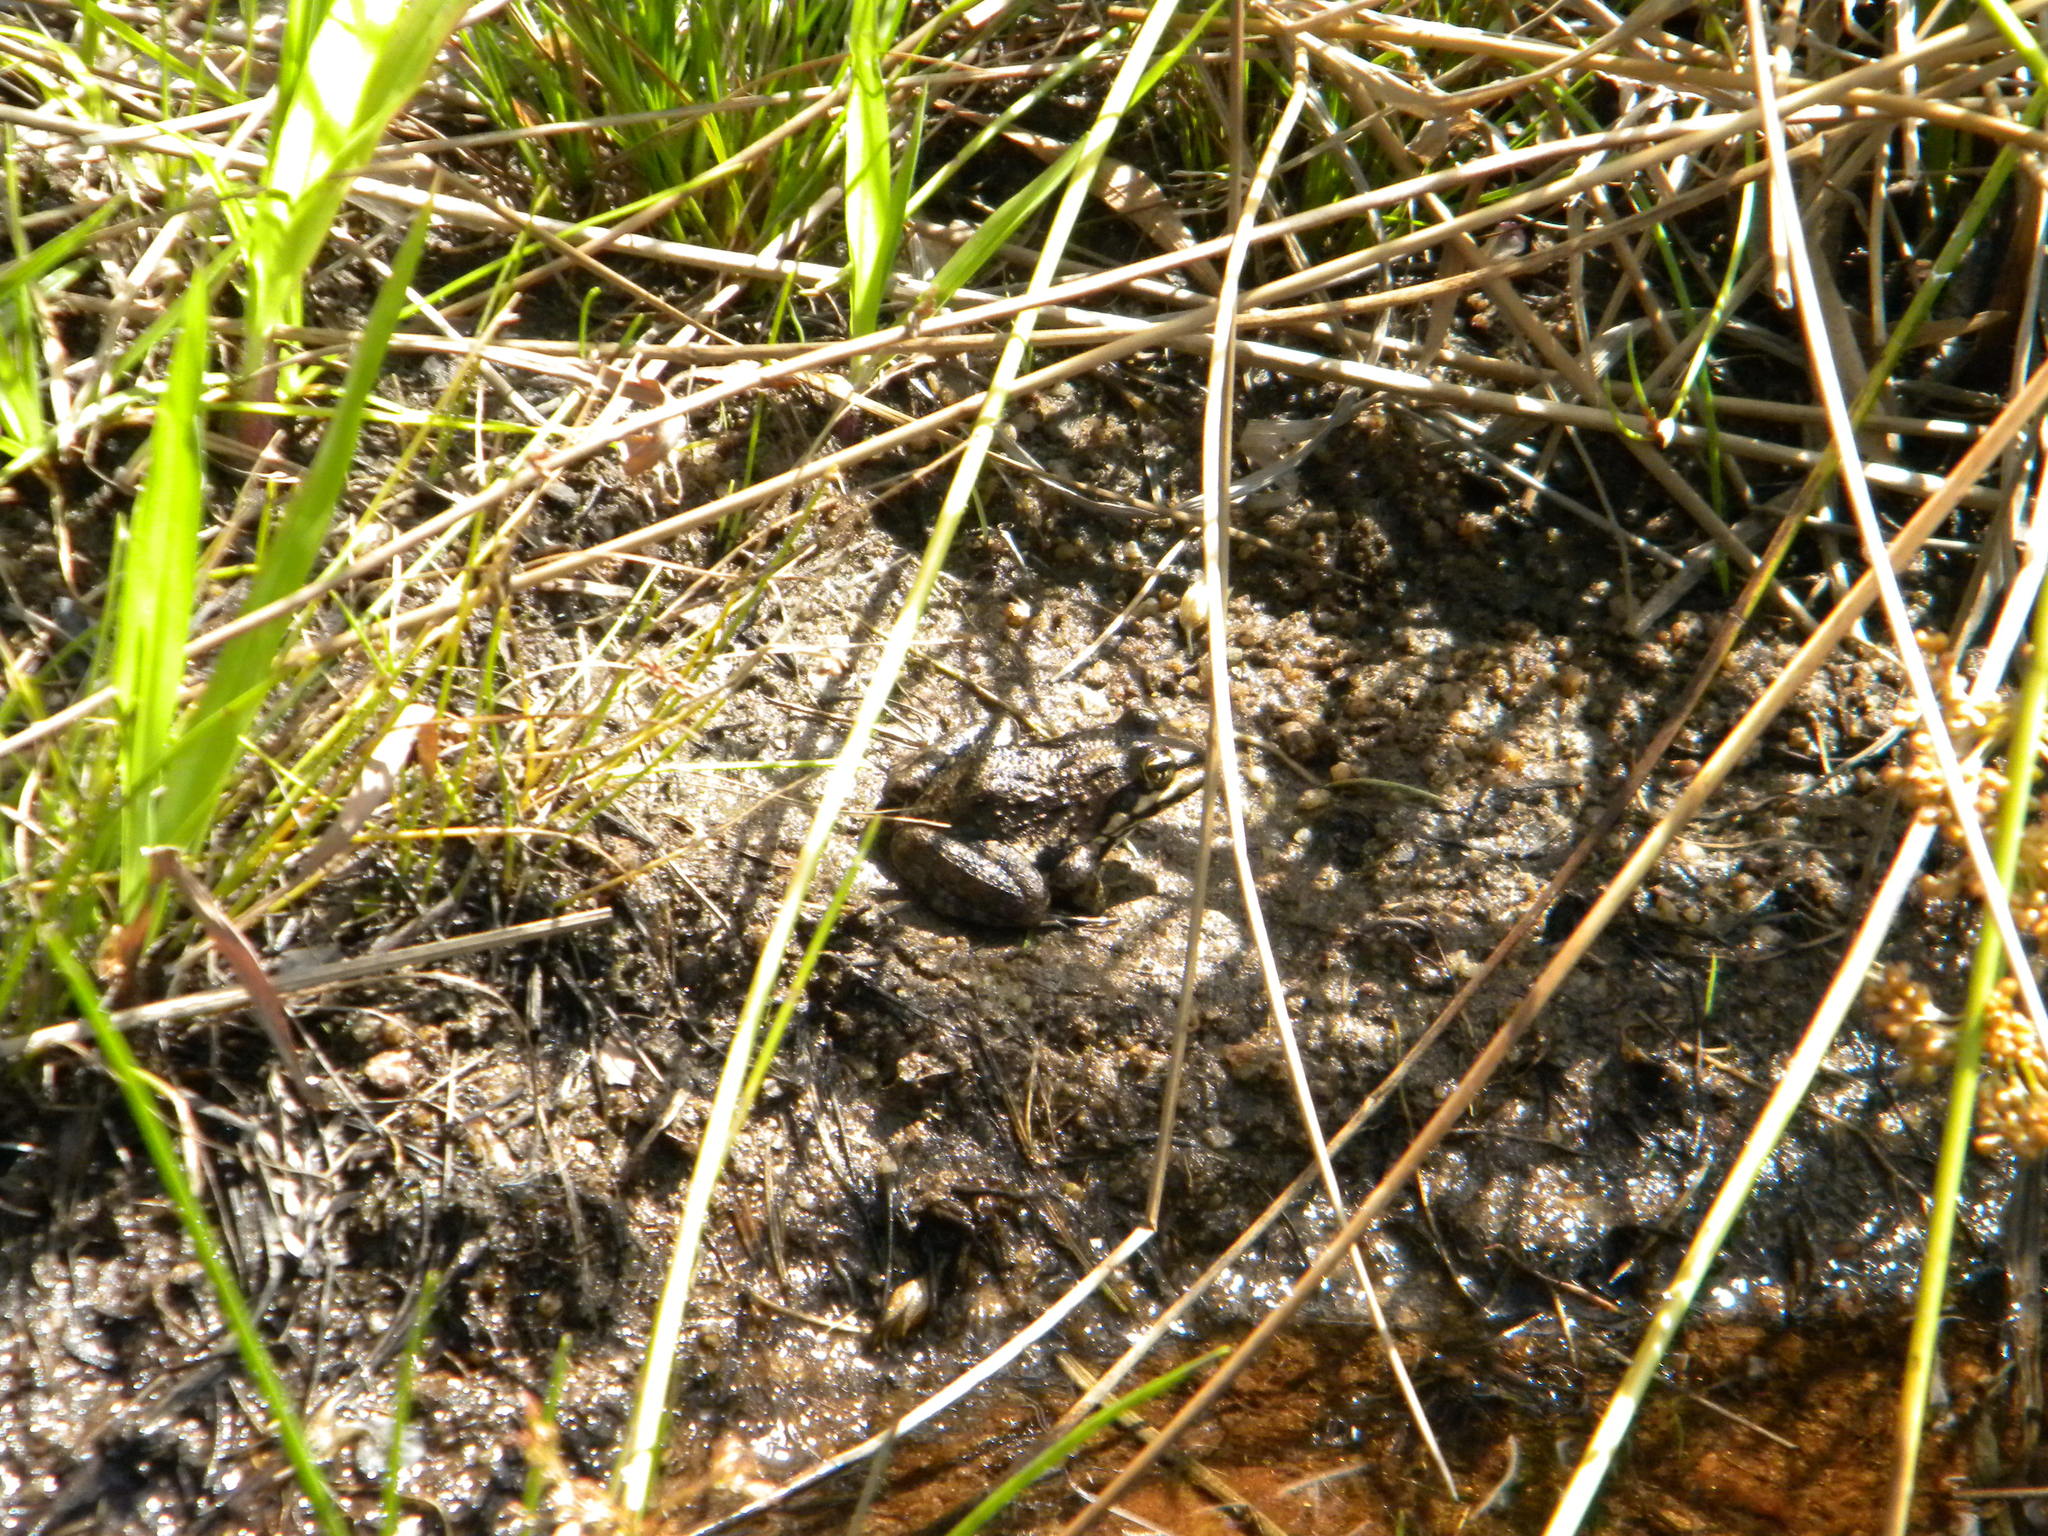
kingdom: Animalia
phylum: Chordata
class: Amphibia
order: Anura
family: Pyxicephalidae
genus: Amietia
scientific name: Amietia fuscigula
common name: Cape rana
